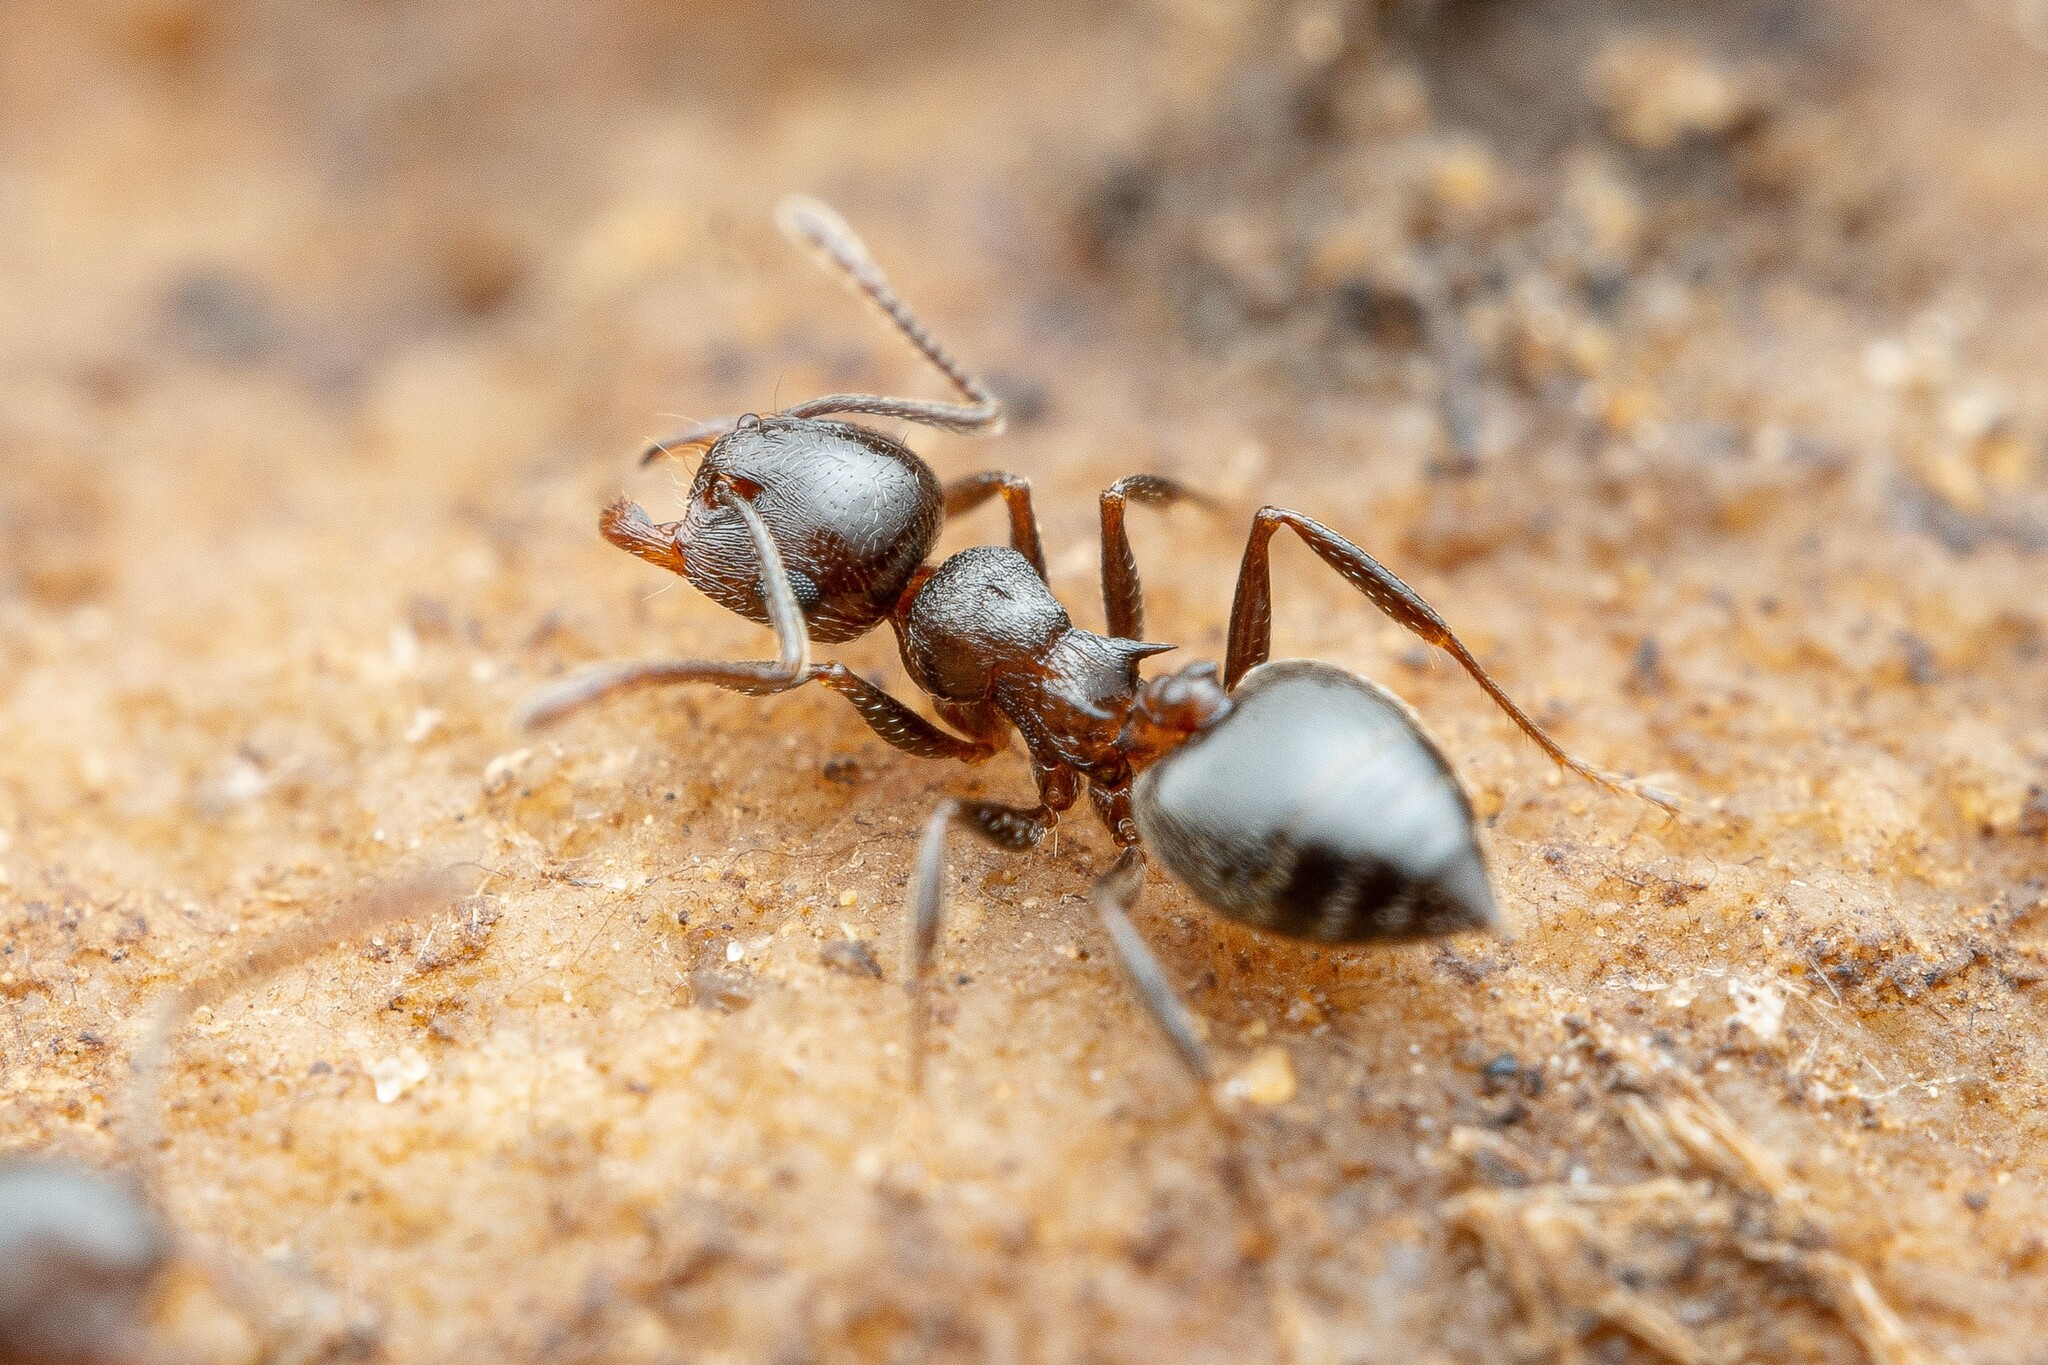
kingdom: Animalia
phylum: Arthropoda
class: Insecta
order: Hymenoptera
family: Formicidae
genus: Crematogaster
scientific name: Crematogaster
